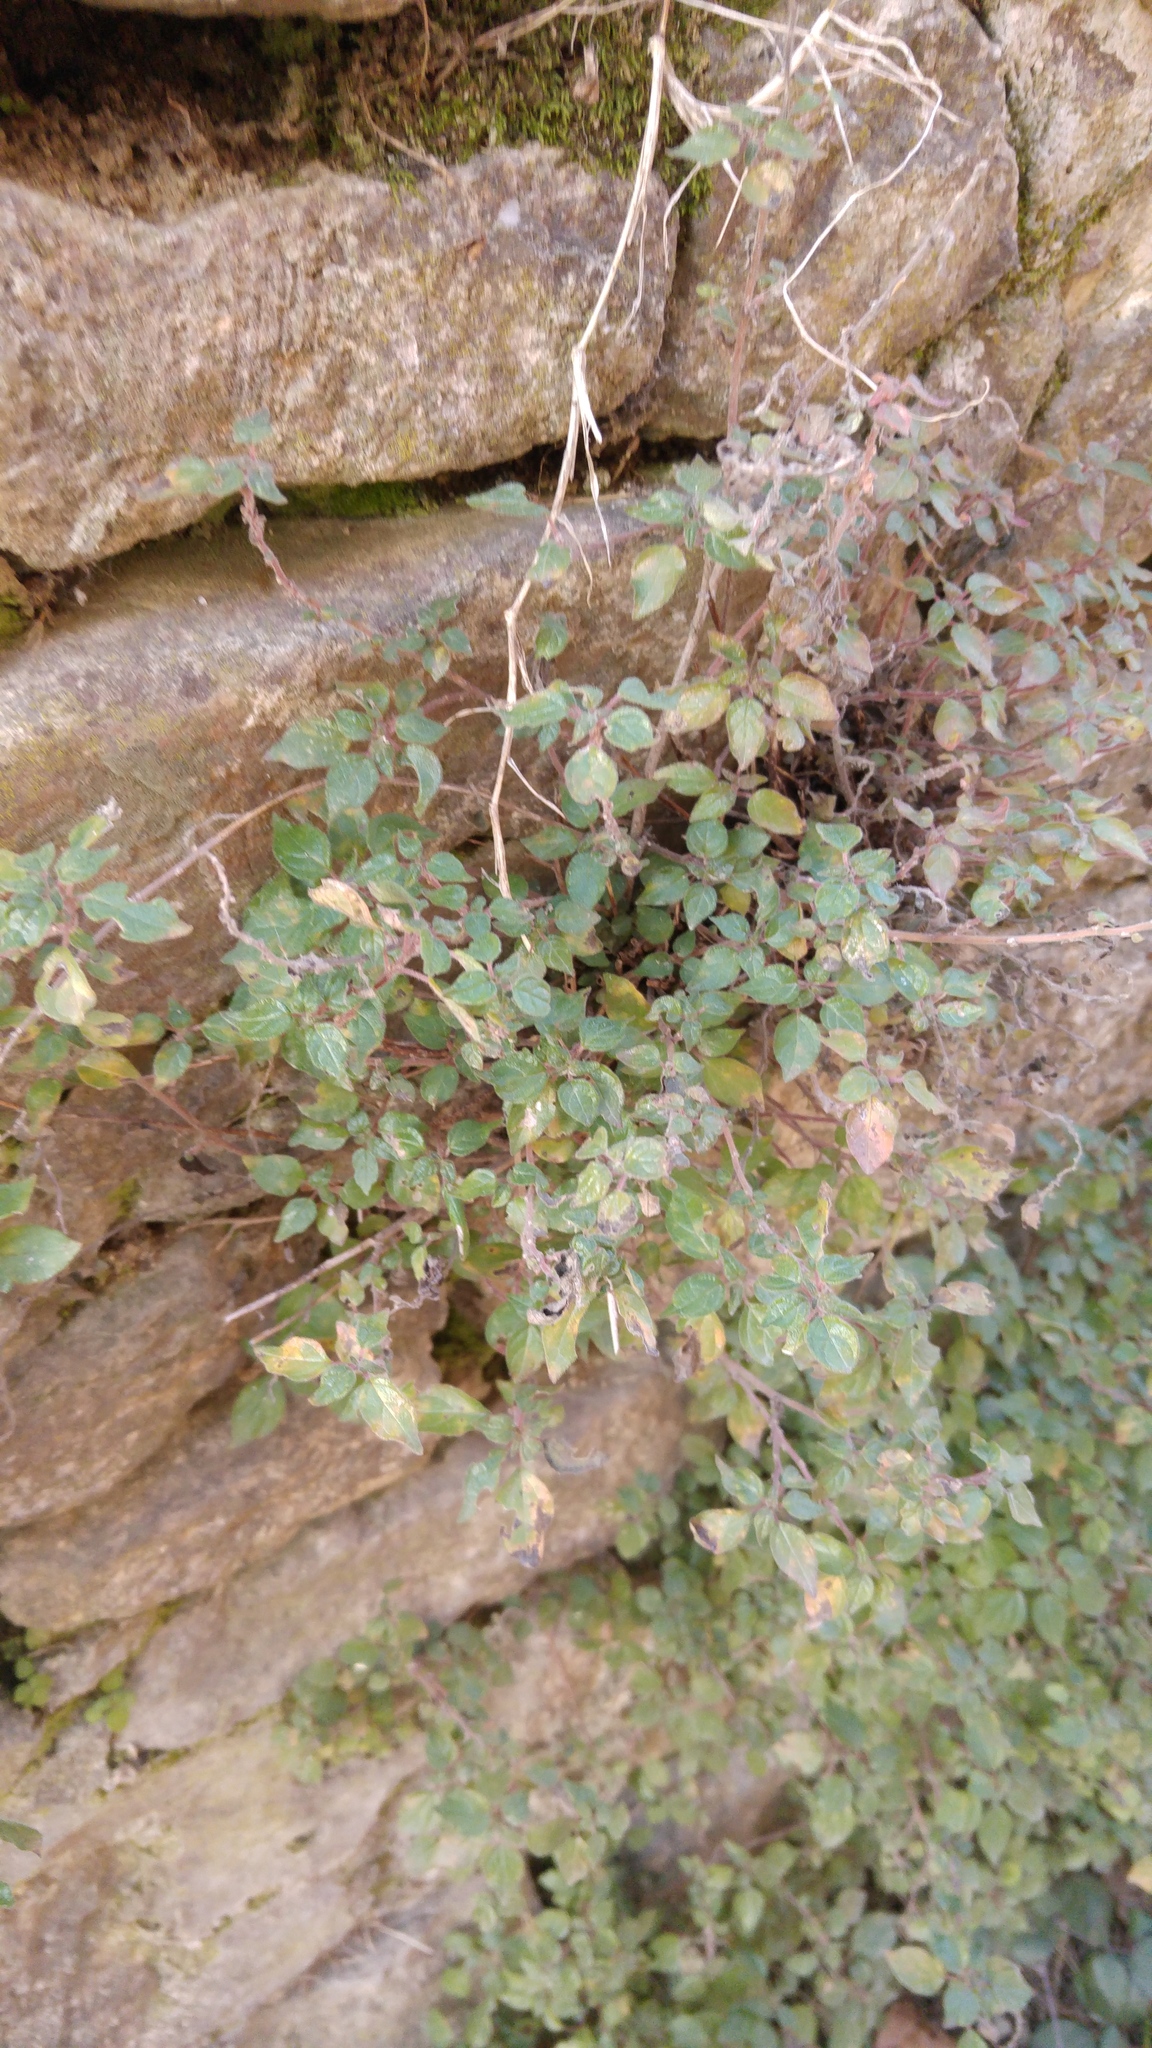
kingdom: Plantae
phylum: Tracheophyta
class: Magnoliopsida
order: Rosales
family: Urticaceae
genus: Parietaria
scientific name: Parietaria judaica
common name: Pellitory-of-the-wall
